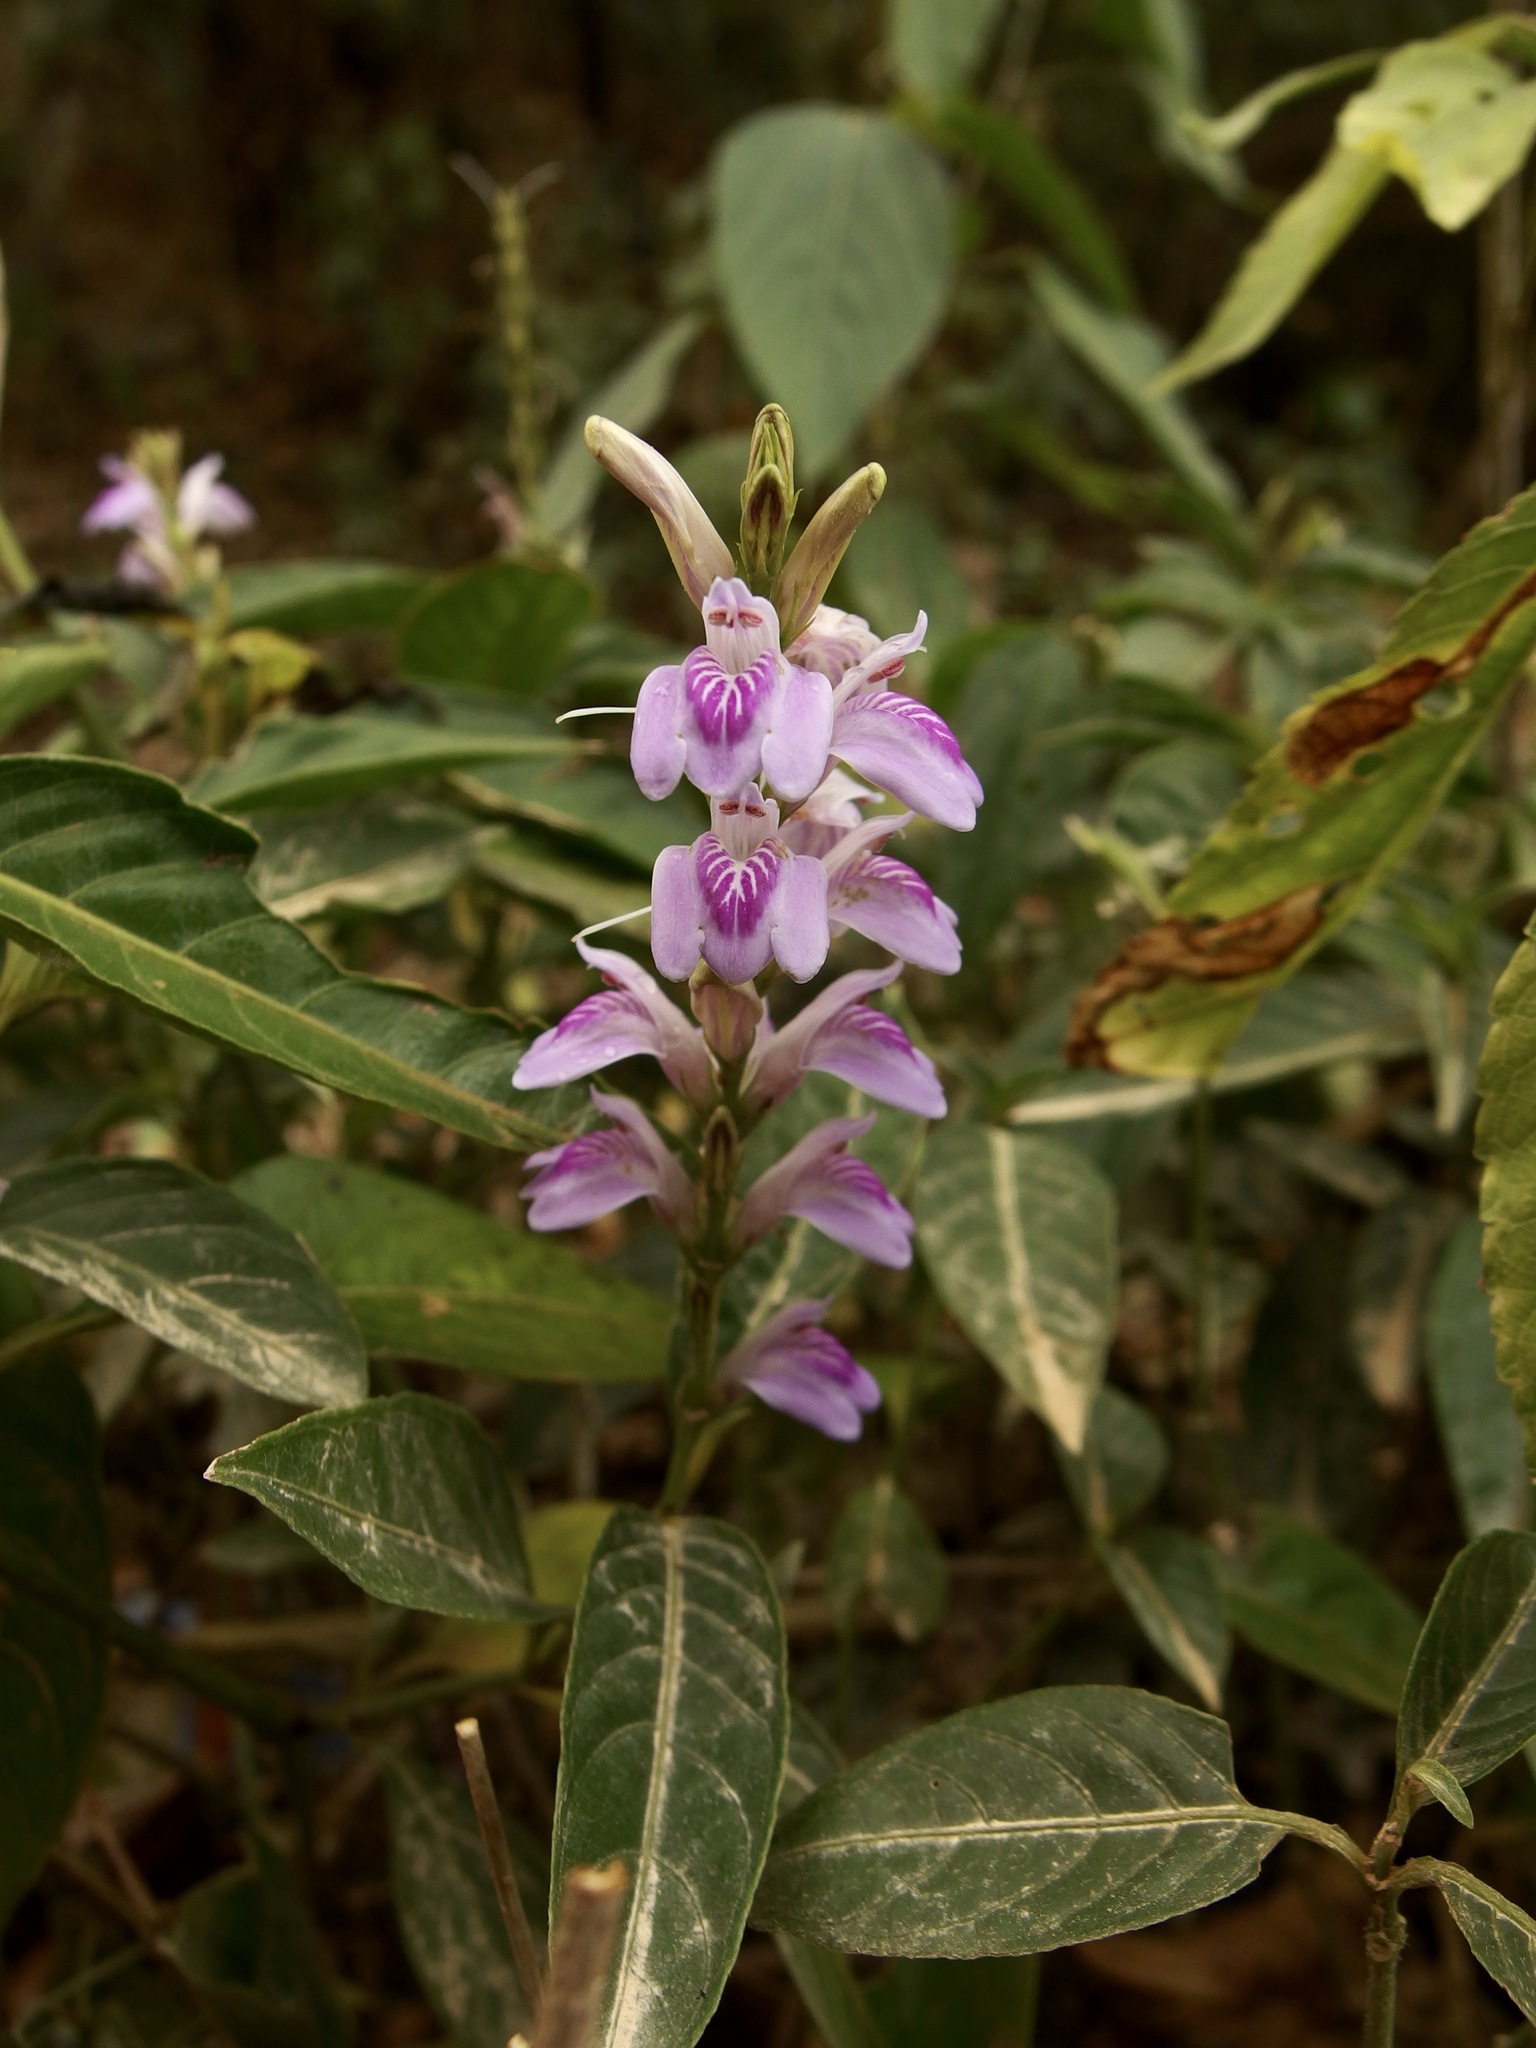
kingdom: Plantae
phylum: Tracheophyta
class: Magnoliopsida
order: Lamiales
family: Acanthaceae
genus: Dianthera
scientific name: Dianthera breviflora
